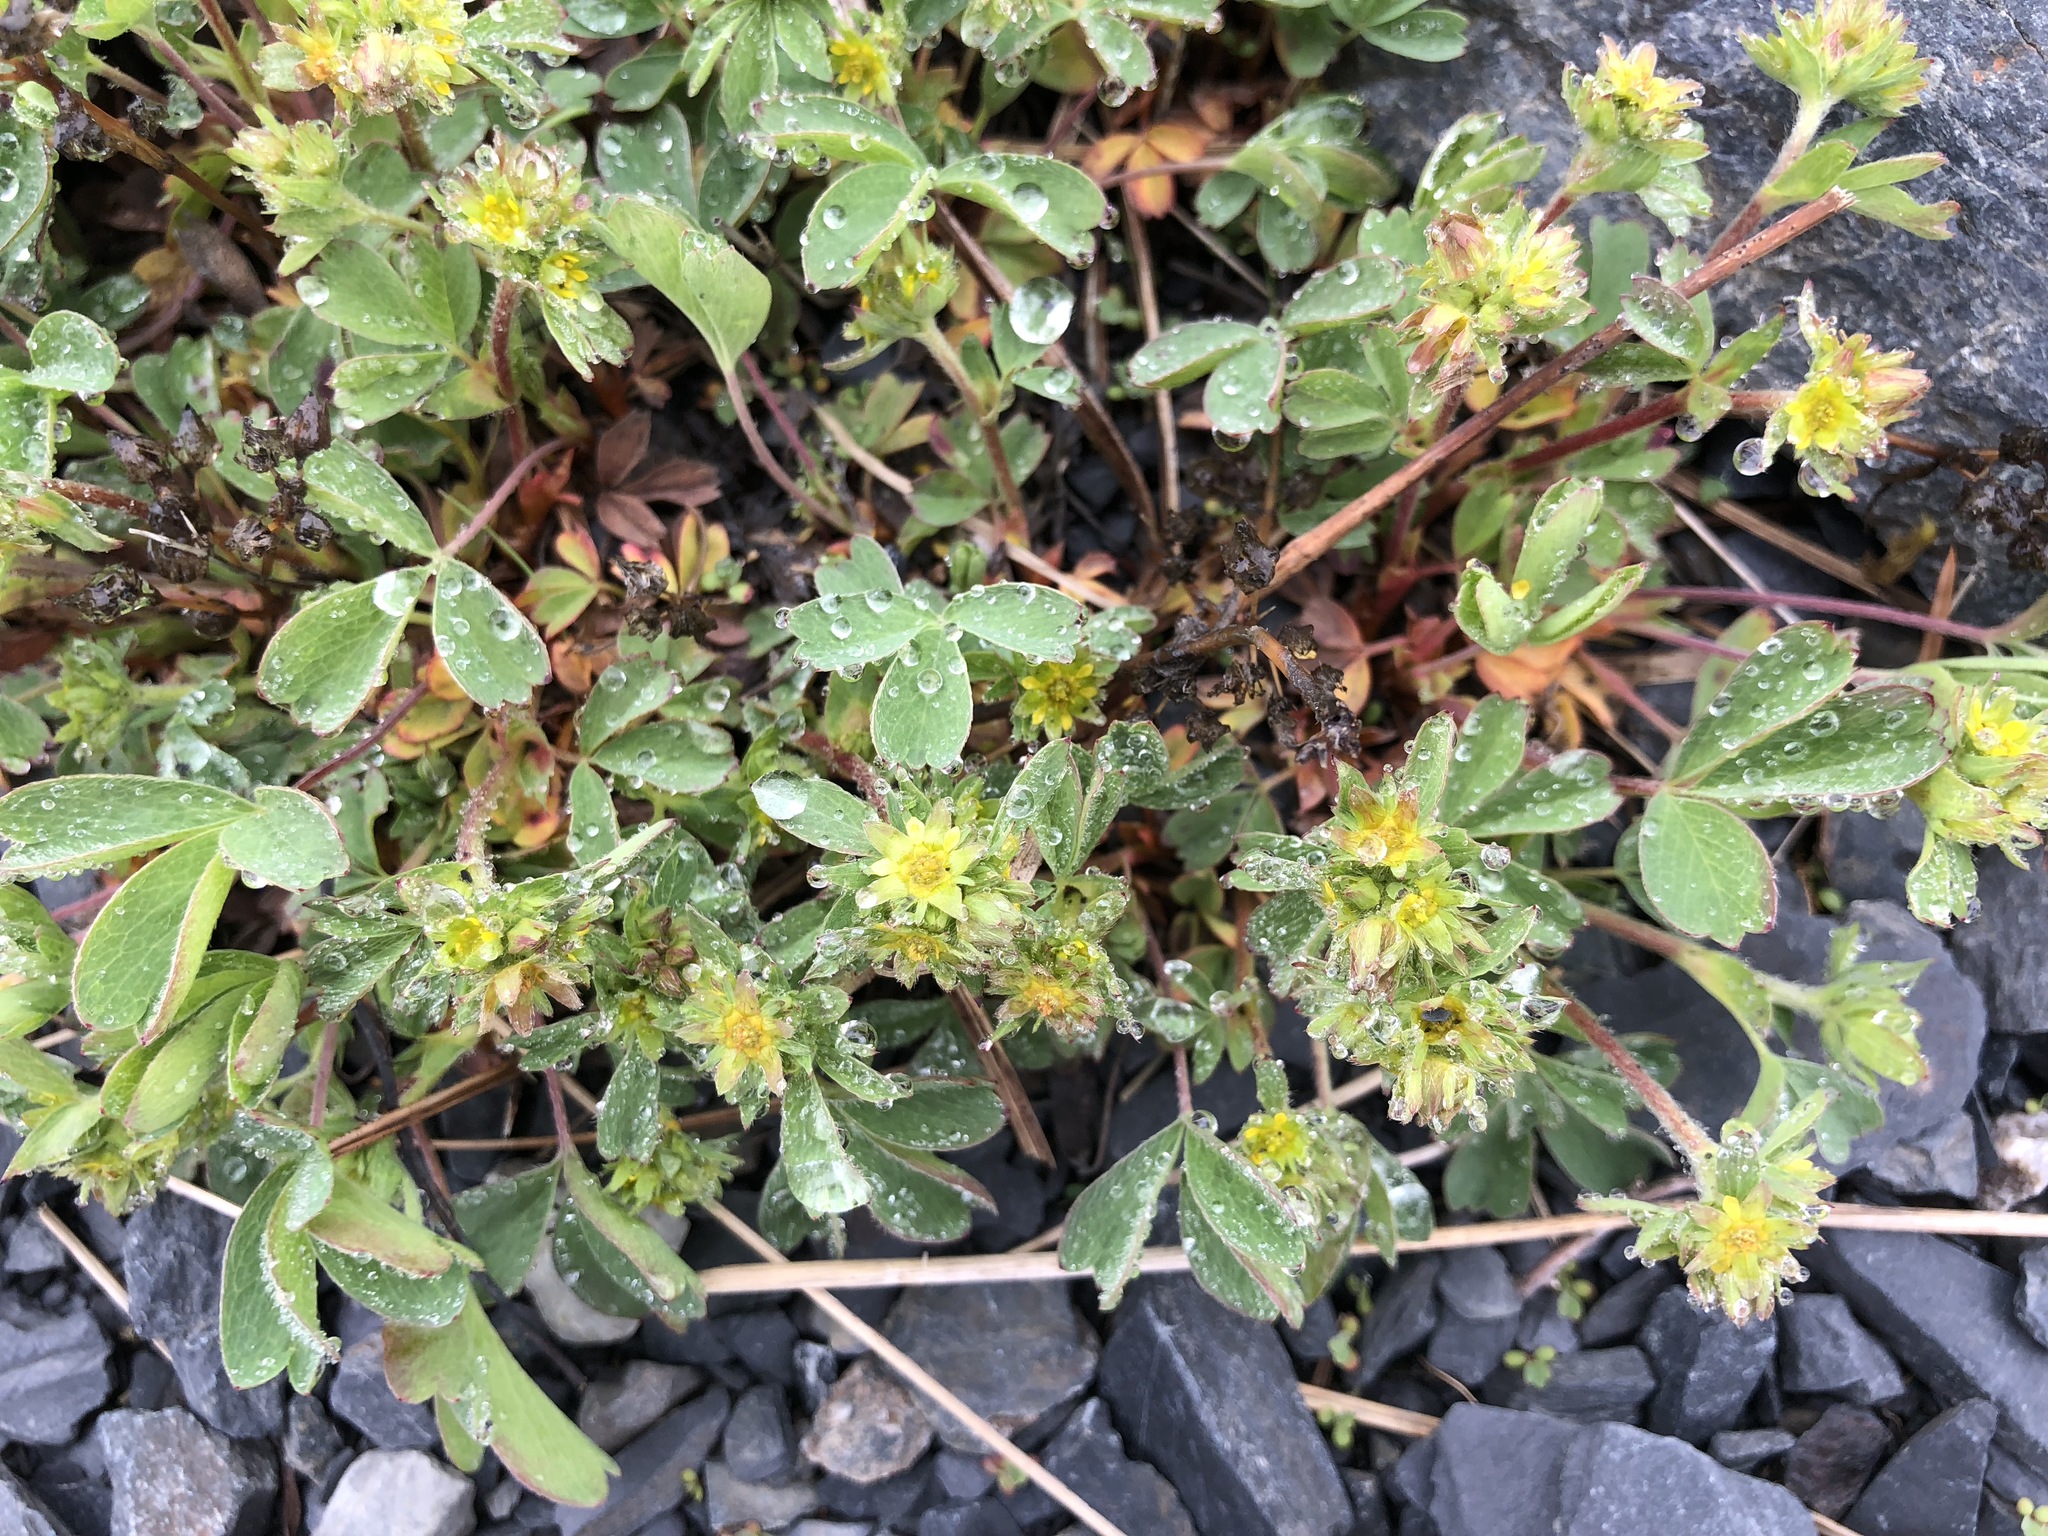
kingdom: Plantae
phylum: Tracheophyta
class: Magnoliopsida
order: Rosales
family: Rosaceae
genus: Sibbaldia
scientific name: Sibbaldia procumbens
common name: Creeping sibbaldia
